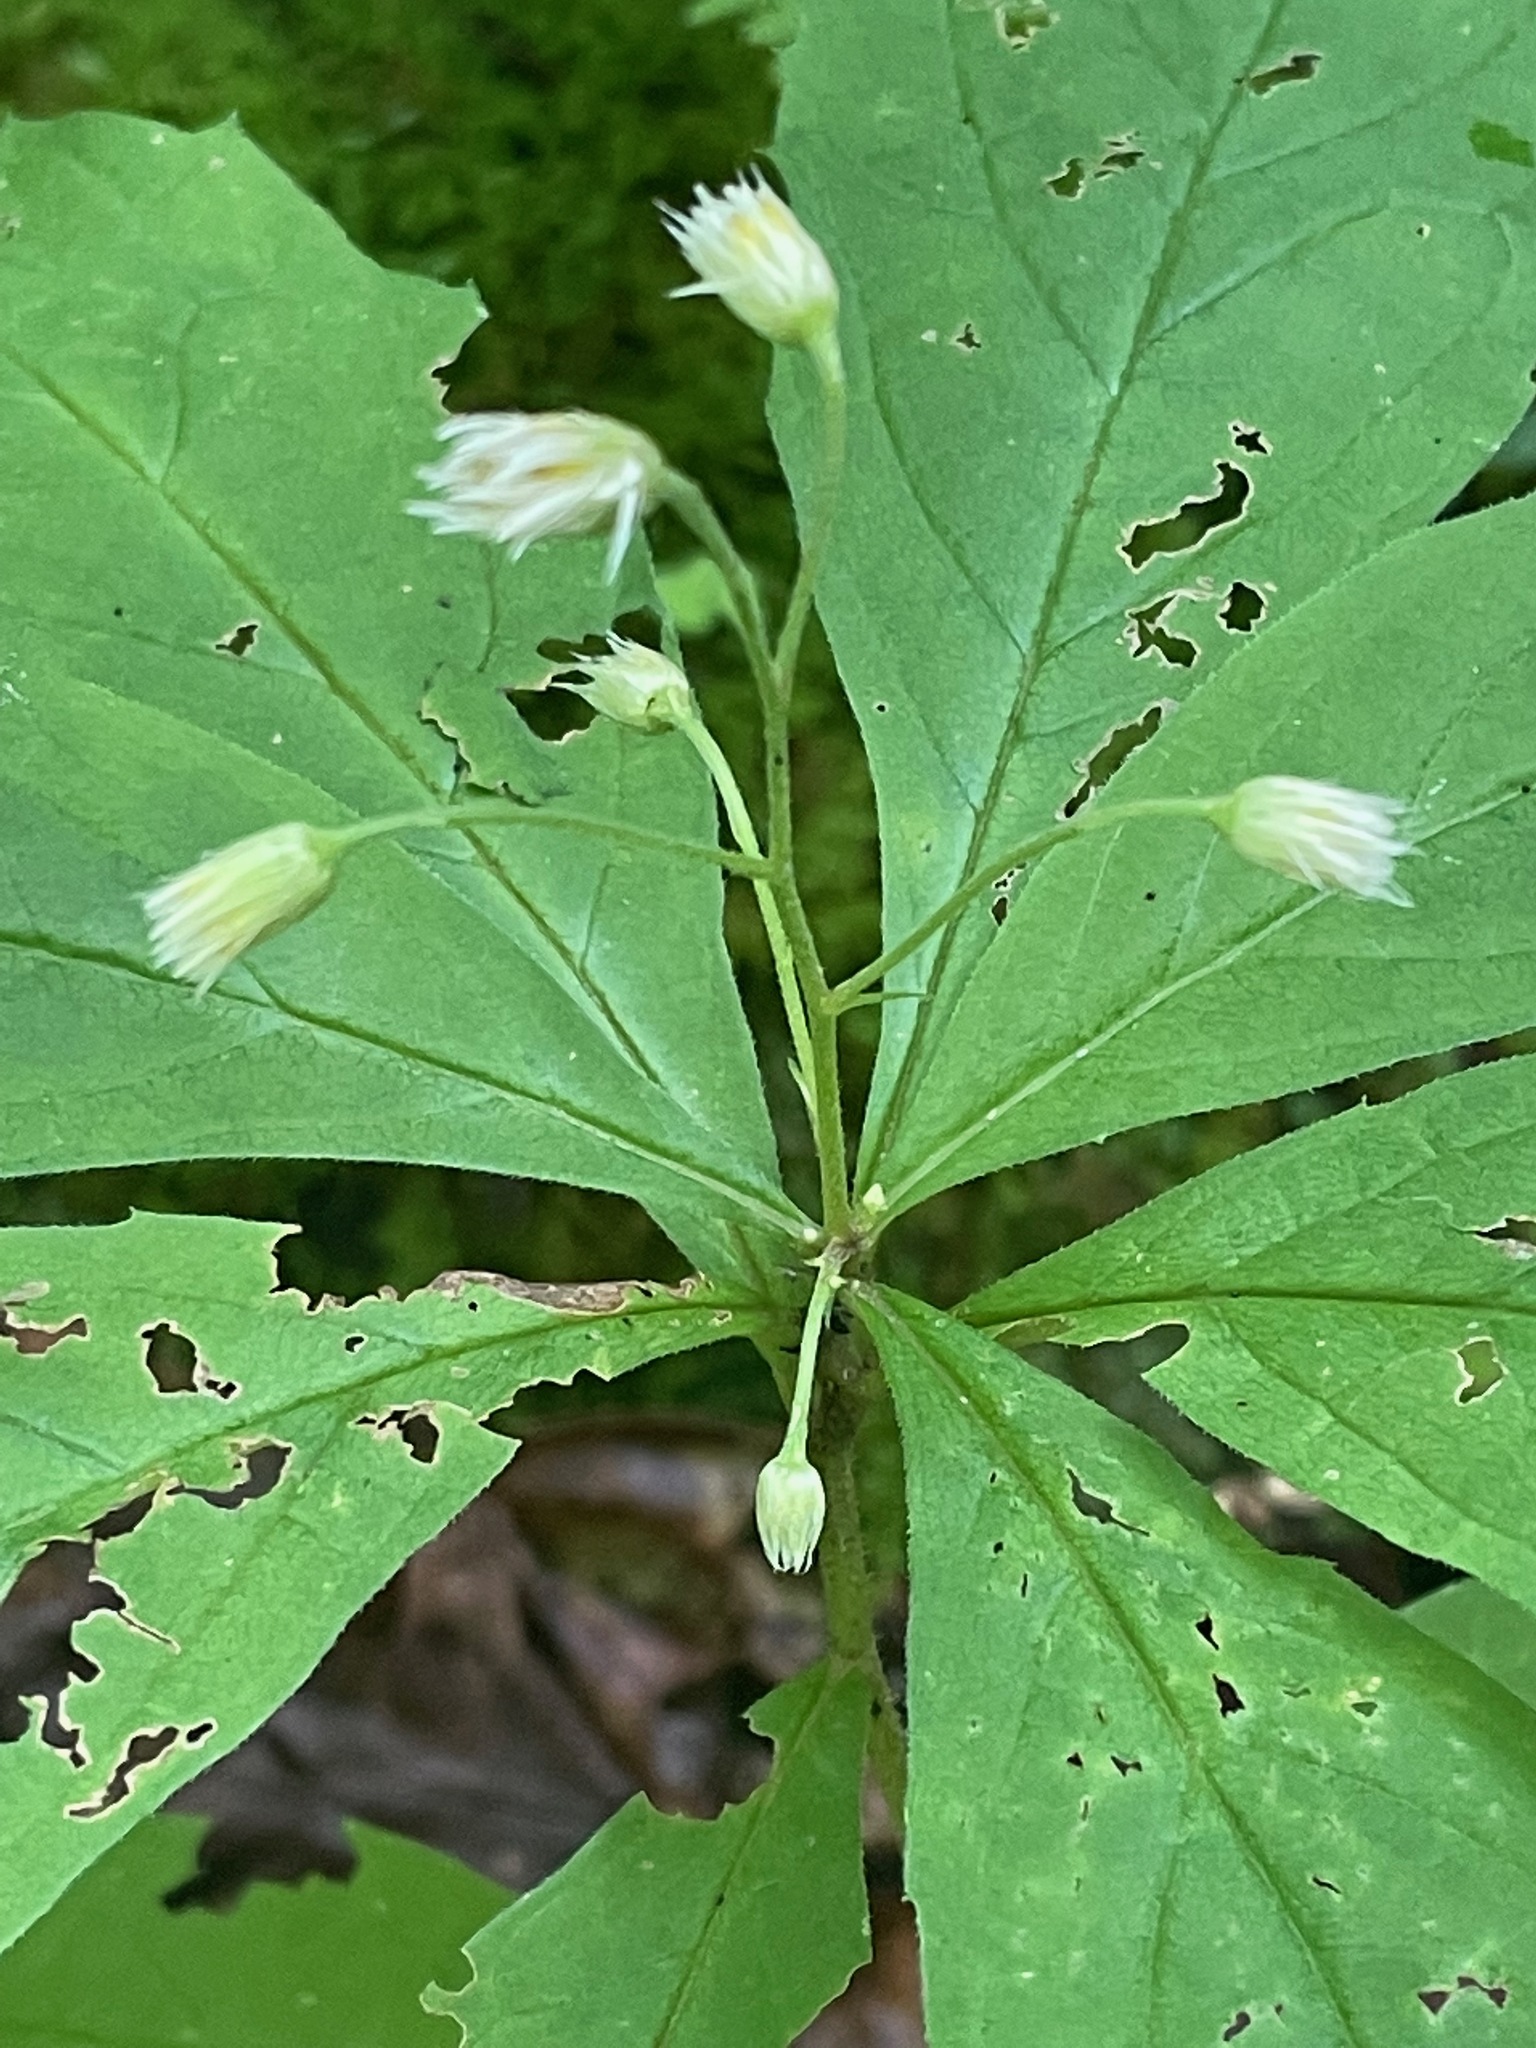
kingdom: Plantae
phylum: Tracheophyta
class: Magnoliopsida
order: Asterales
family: Asteraceae
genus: Oclemena
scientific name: Oclemena acuminata
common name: Mountain aster
